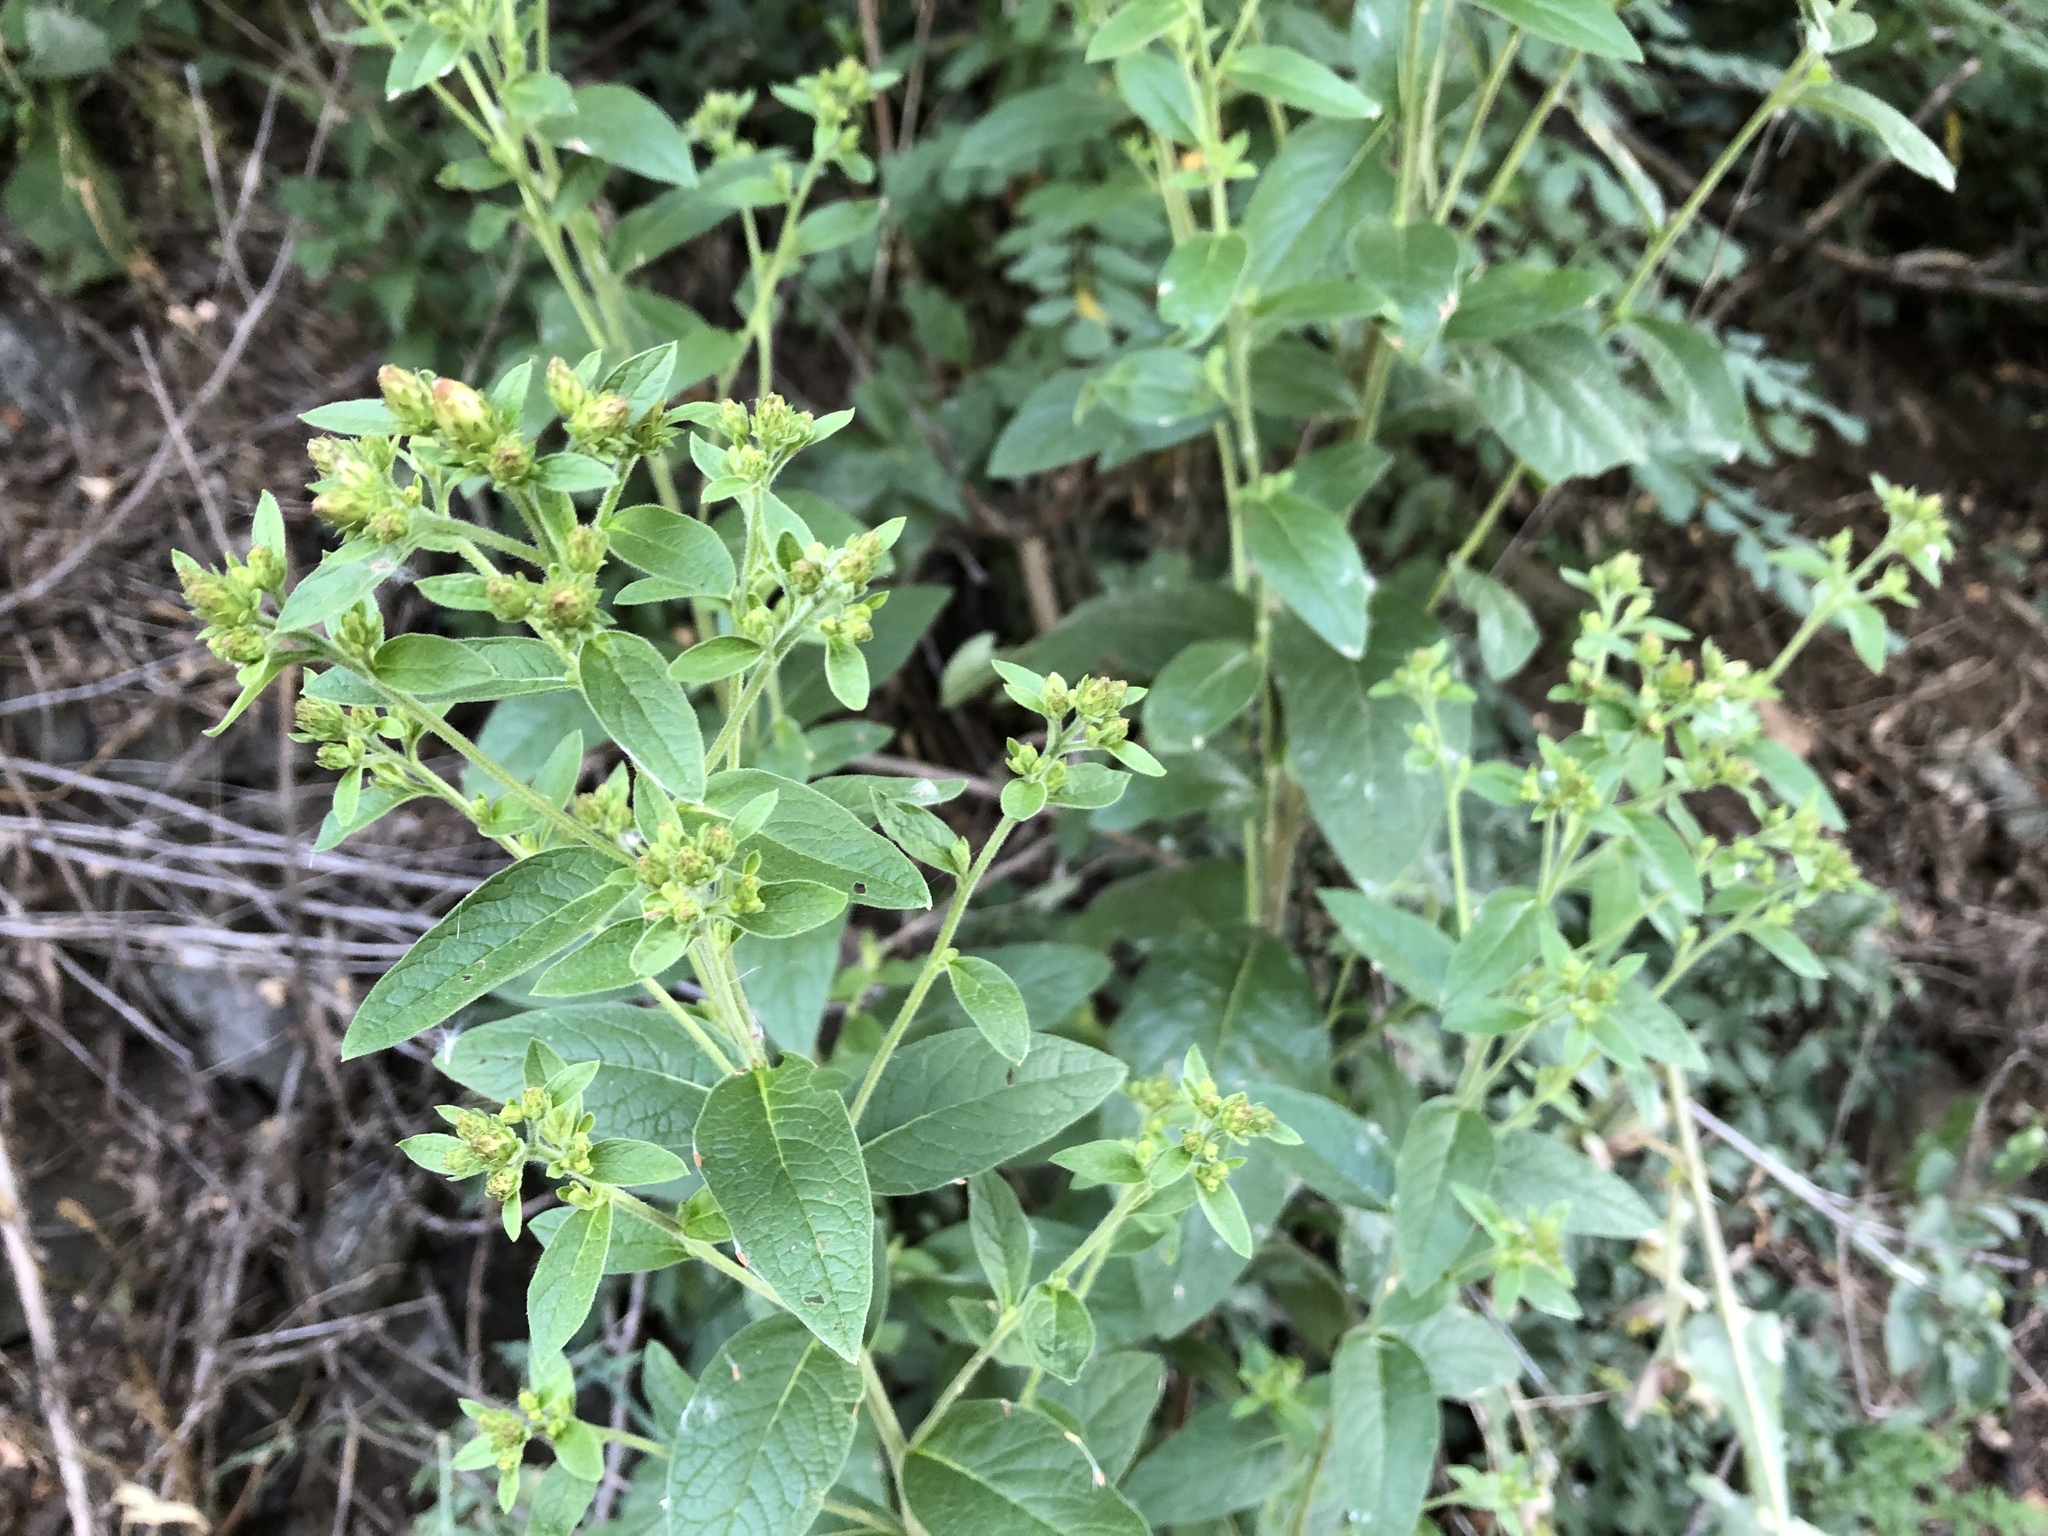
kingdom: Plantae
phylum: Tracheophyta
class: Magnoliopsida
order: Asterales
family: Asteraceae
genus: Pentanema
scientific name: Pentanema squarrosum
